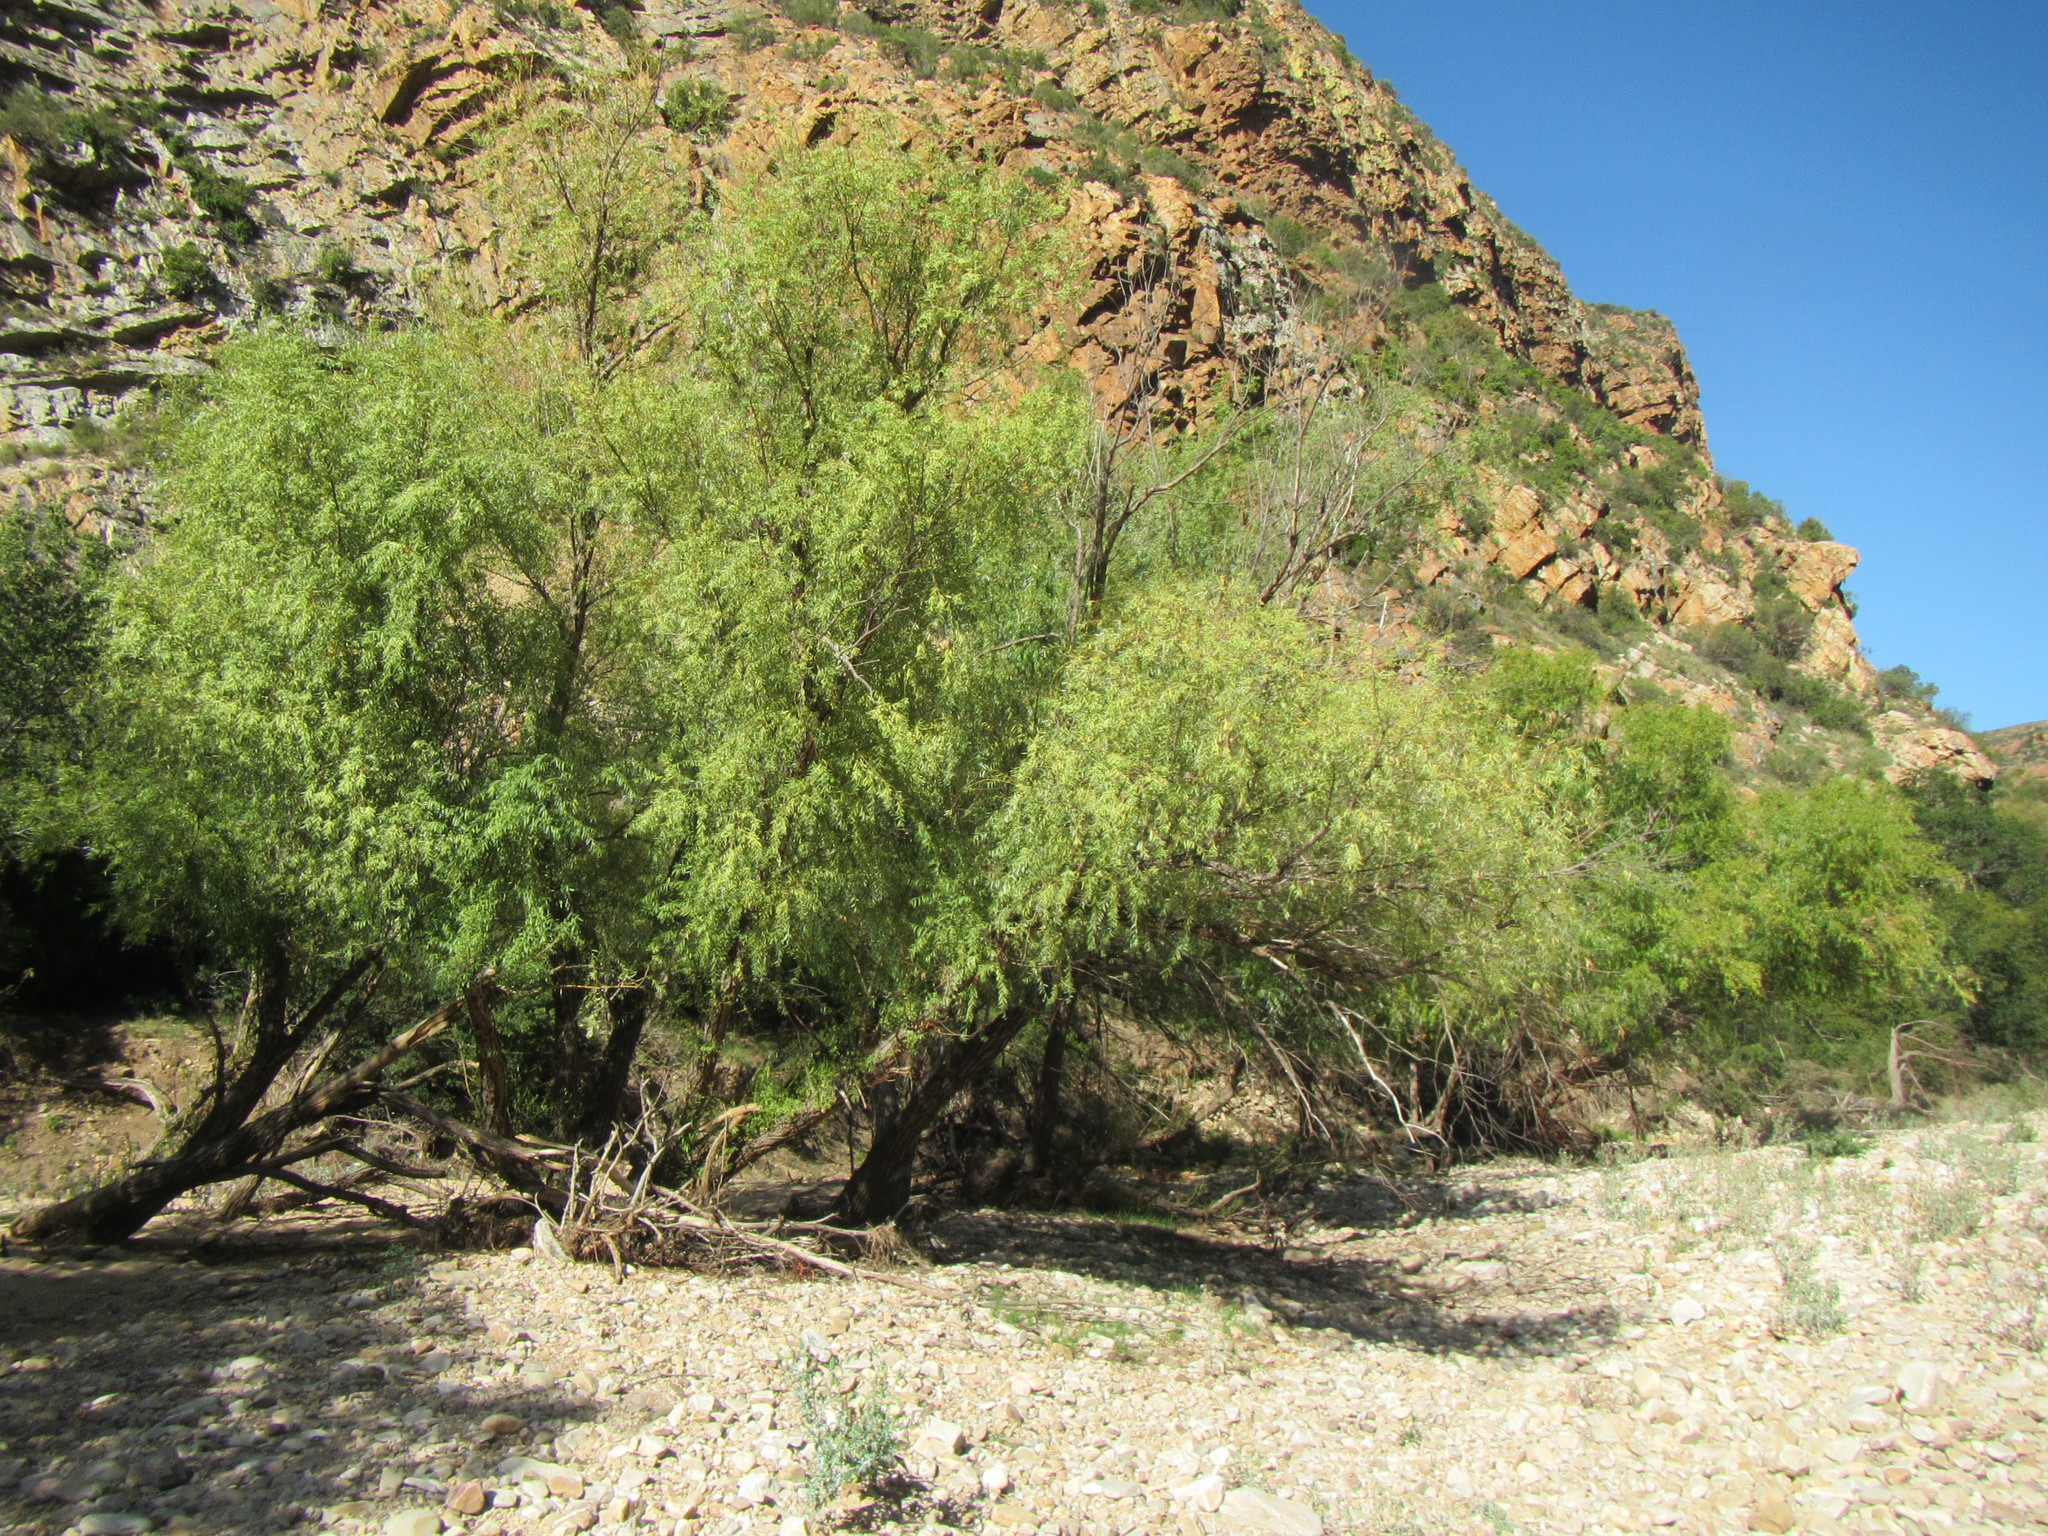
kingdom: Plantae
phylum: Tracheophyta
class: Magnoliopsida
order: Malpighiales
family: Salicaceae
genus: Salix
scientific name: Salix mucronata
